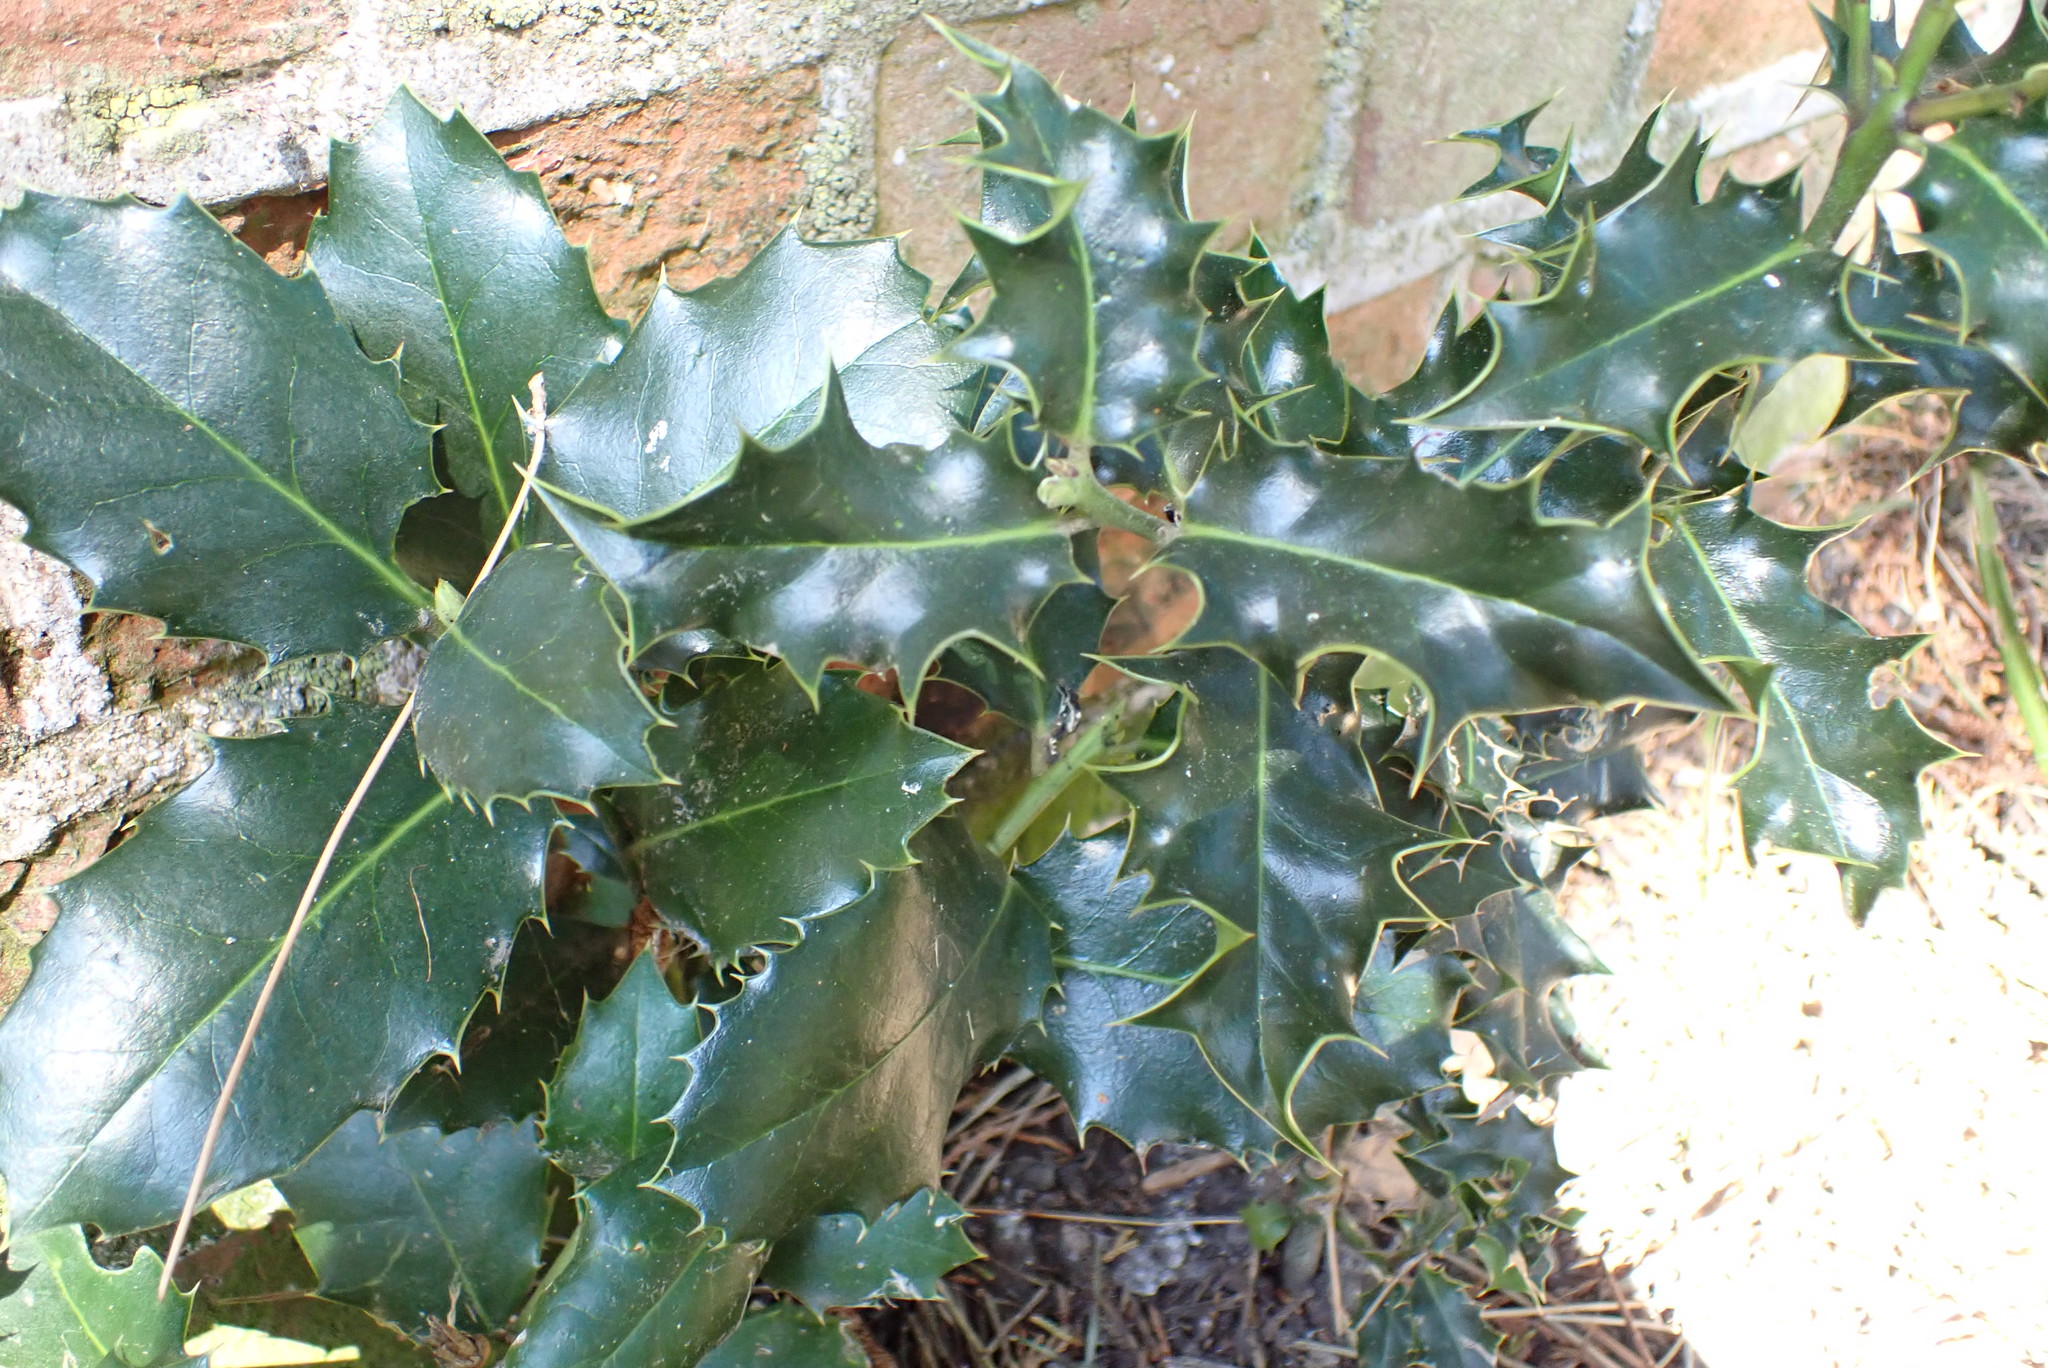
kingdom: Plantae
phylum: Tracheophyta
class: Magnoliopsida
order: Aquifoliales
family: Aquifoliaceae
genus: Ilex
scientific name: Ilex aquifolium
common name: English holly
